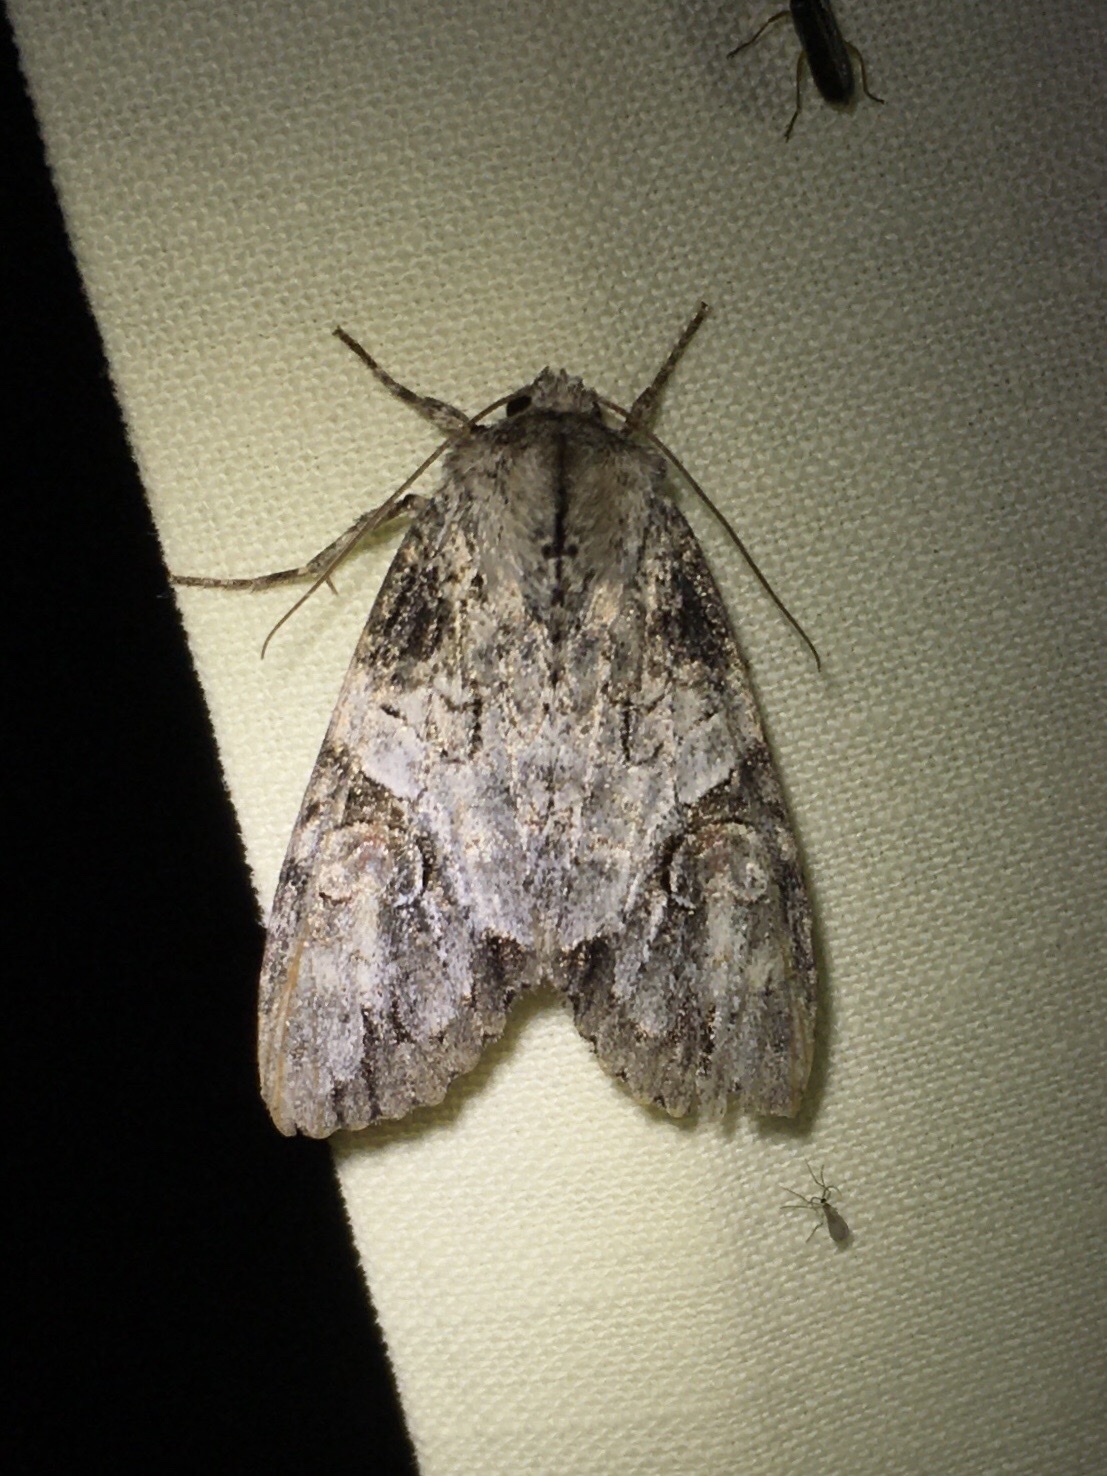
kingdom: Animalia
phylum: Arthropoda
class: Insecta
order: Lepidoptera
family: Noctuidae
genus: Achatia
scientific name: Achatia latex
